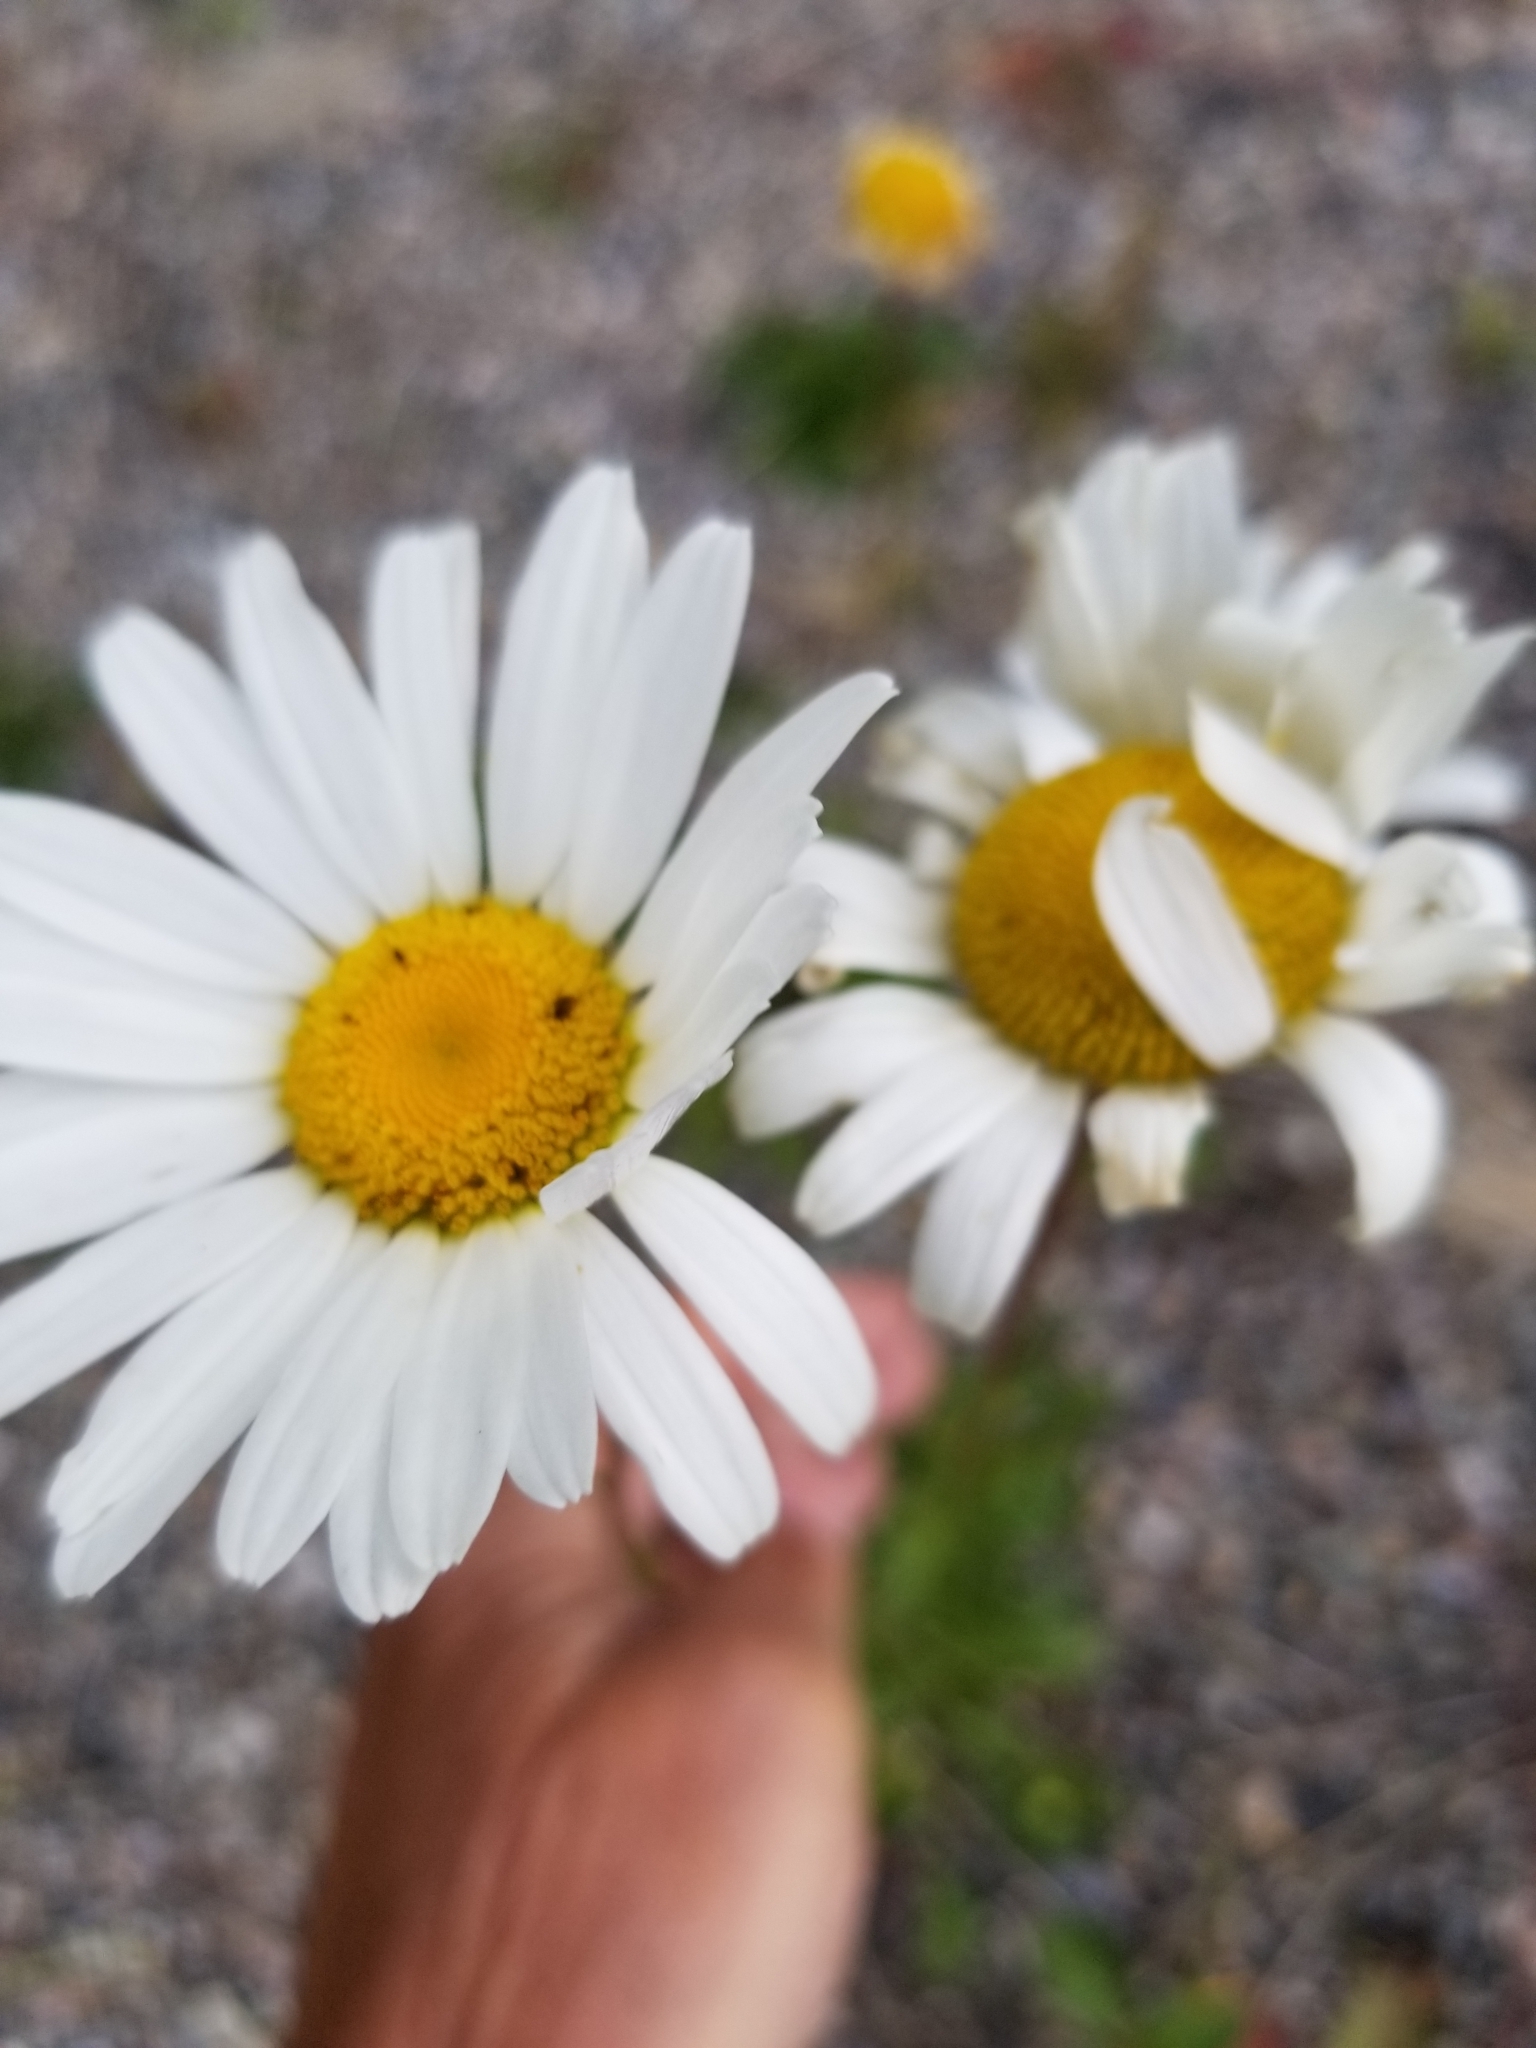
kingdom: Plantae
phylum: Tracheophyta
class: Magnoliopsida
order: Asterales
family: Asteraceae
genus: Leucanthemum
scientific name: Leucanthemum vulgare
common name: Oxeye daisy
